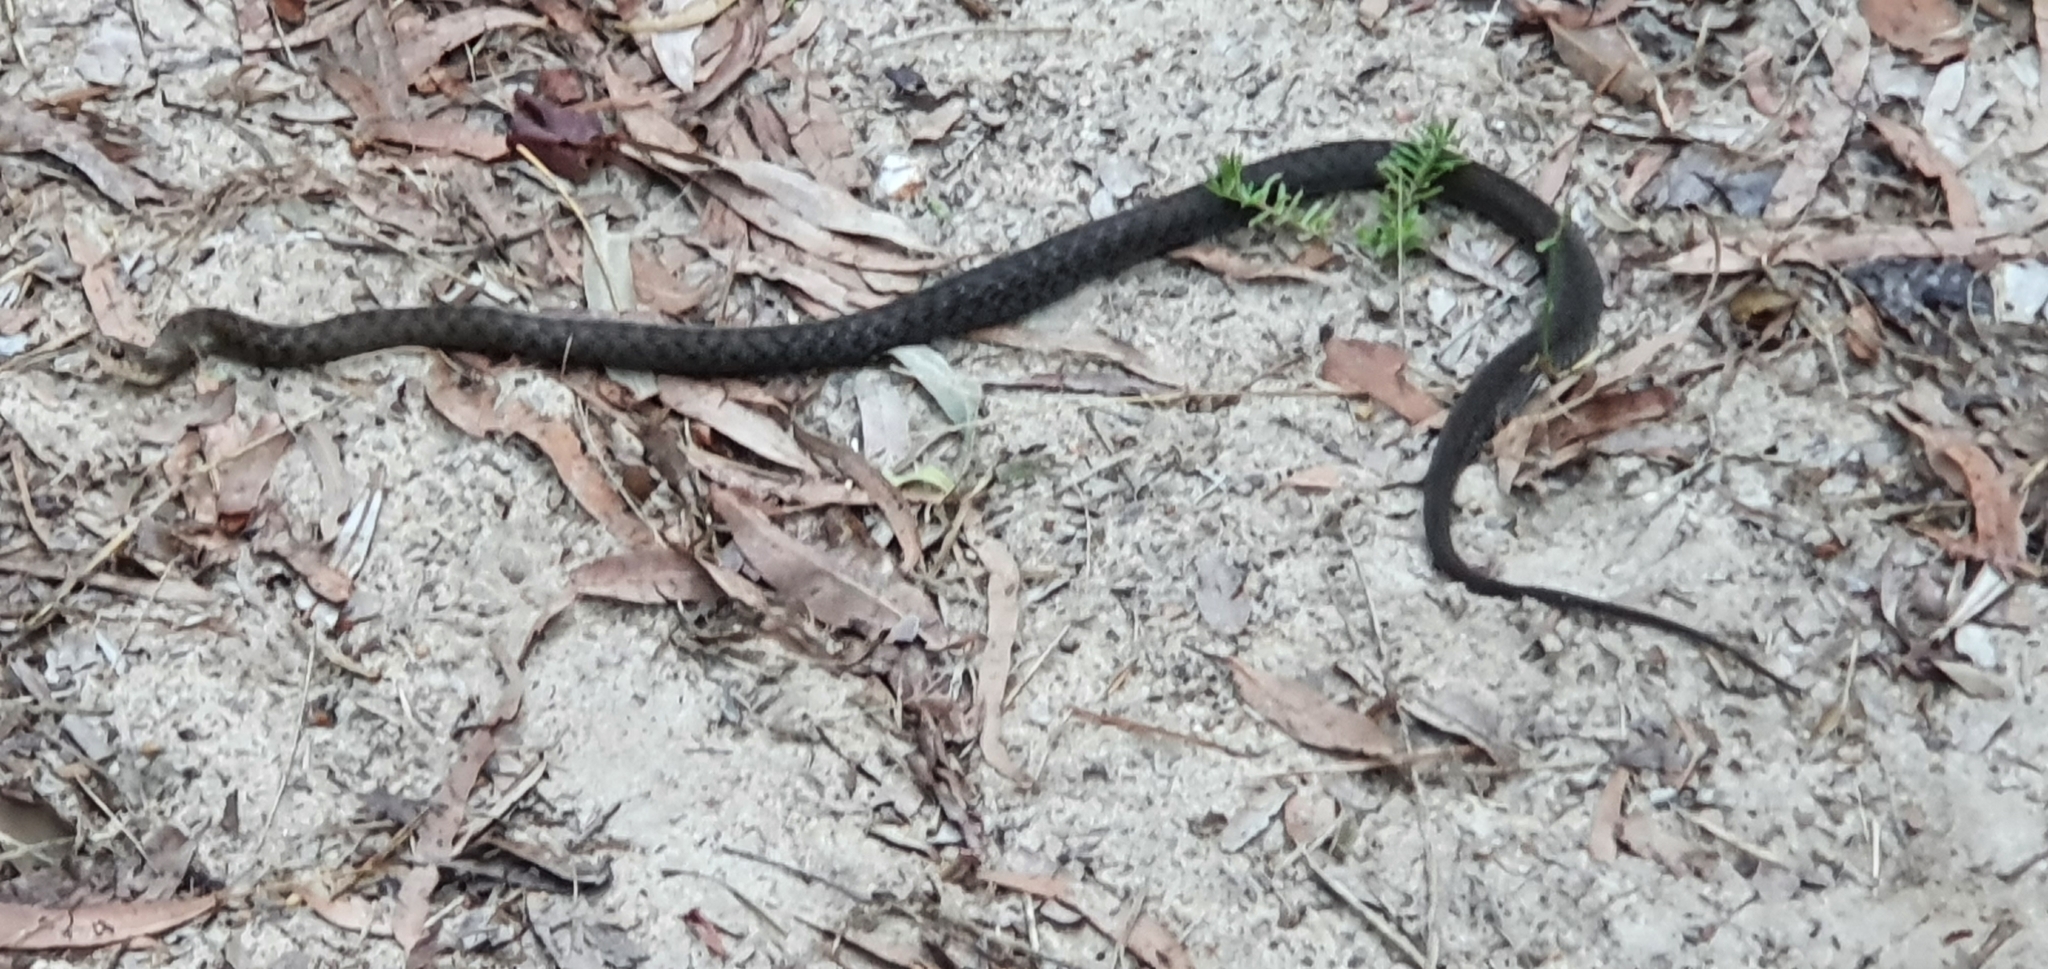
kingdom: Animalia
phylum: Chordata
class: Squamata
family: Colubridae
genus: Tropidonophis
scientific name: Tropidonophis mairii
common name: Common keelback
